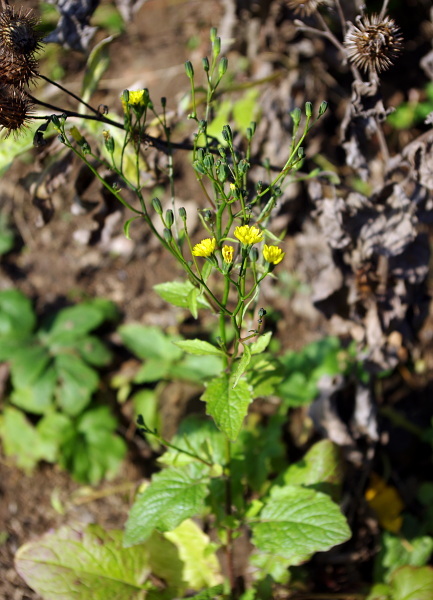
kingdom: Plantae
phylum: Tracheophyta
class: Magnoliopsida
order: Asterales
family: Asteraceae
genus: Lapsana
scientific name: Lapsana communis
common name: Nipplewort
